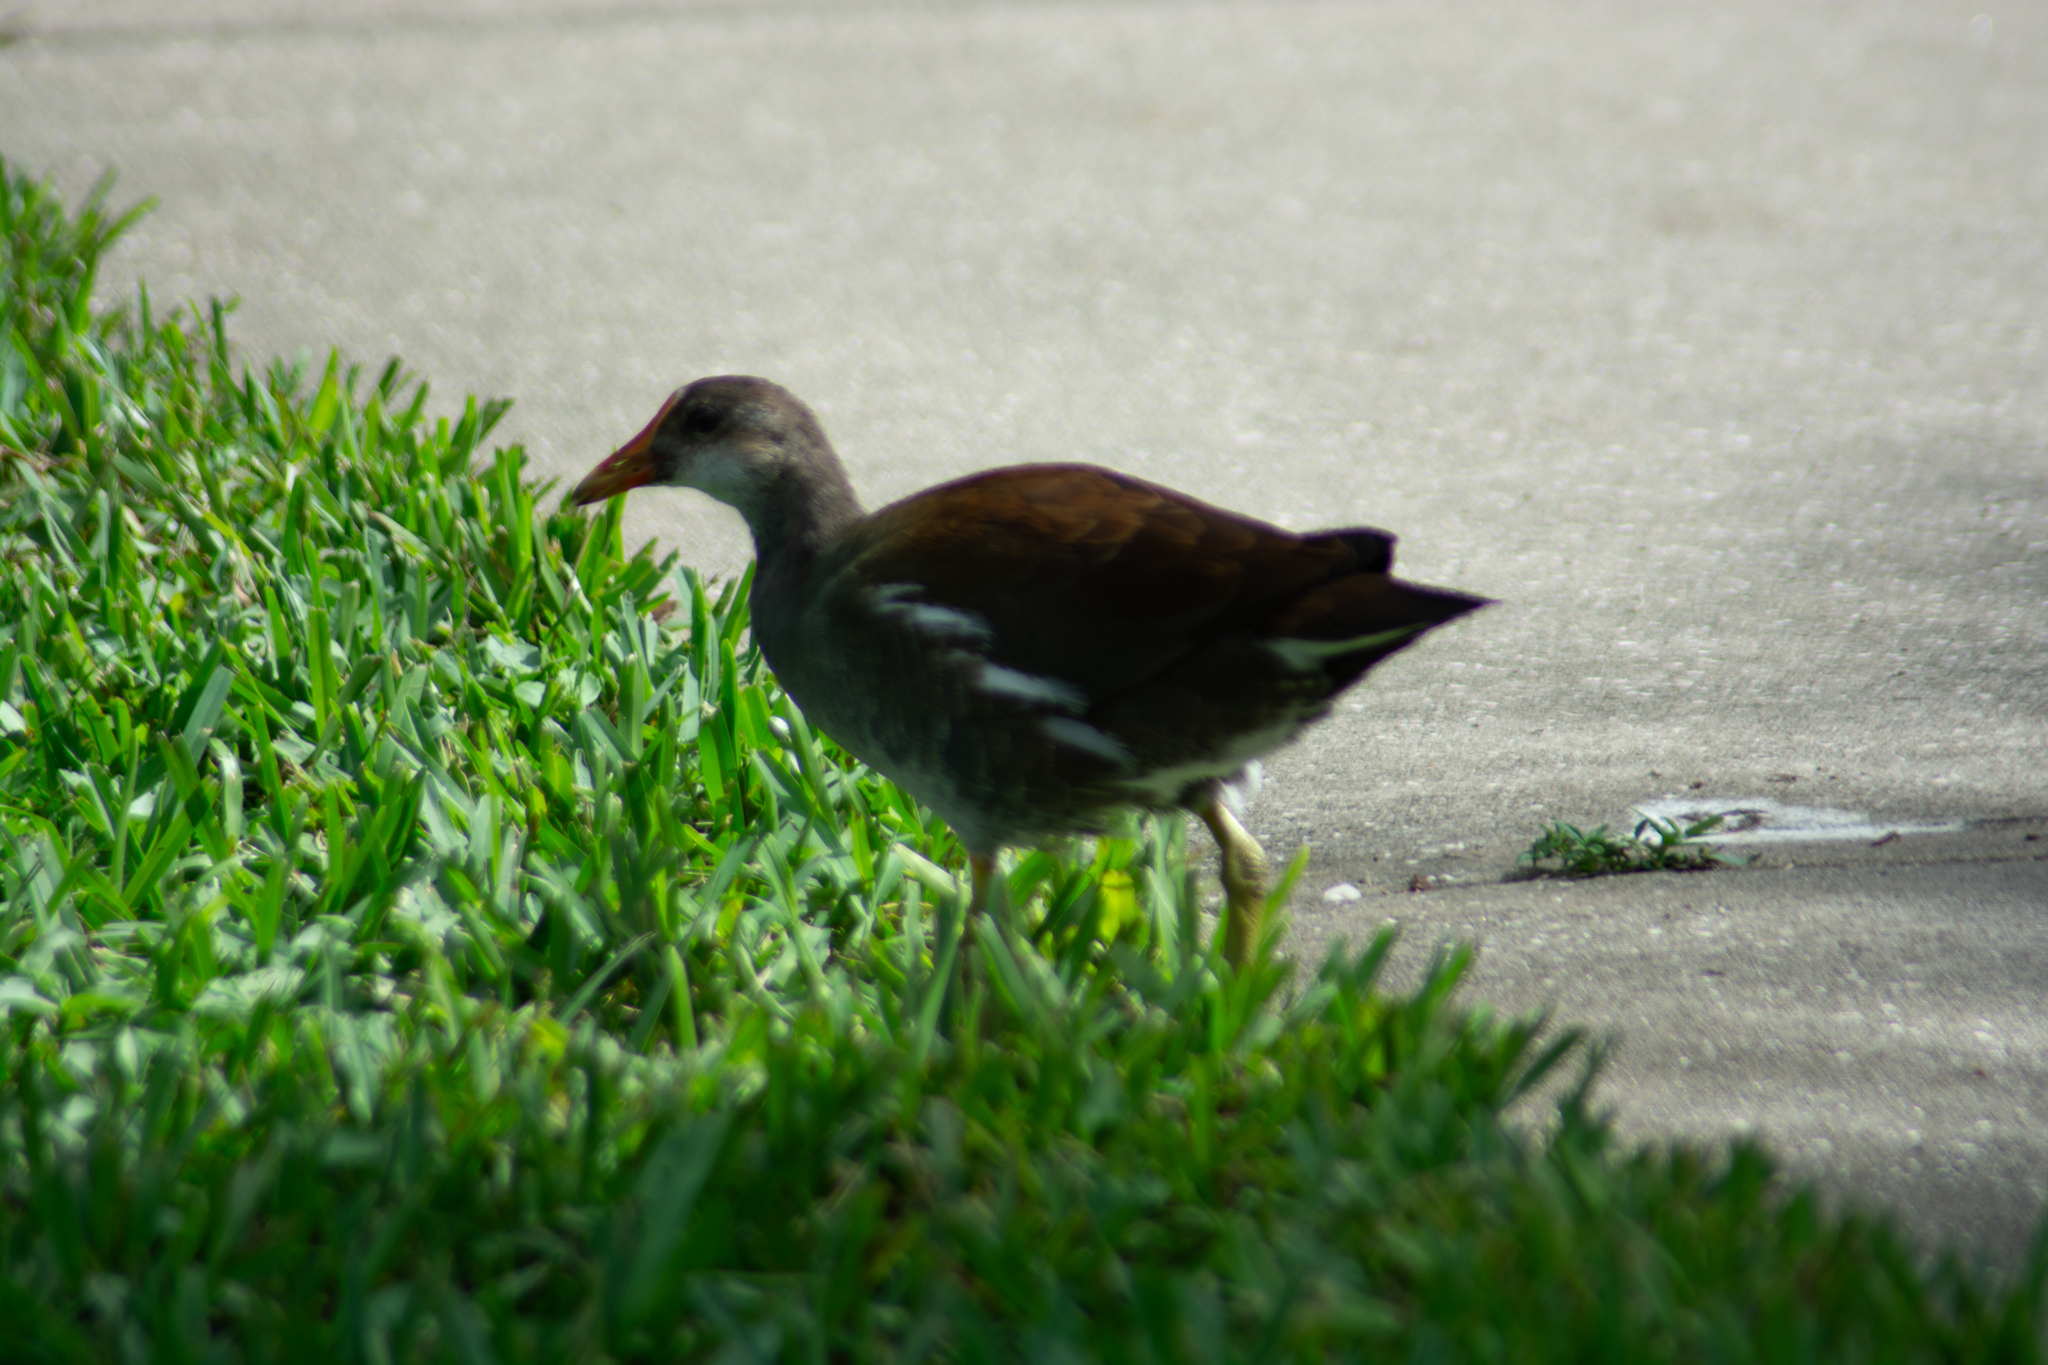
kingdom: Animalia
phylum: Chordata
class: Aves
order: Gruiformes
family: Rallidae
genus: Gallinula
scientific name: Gallinula chloropus
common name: Common moorhen
